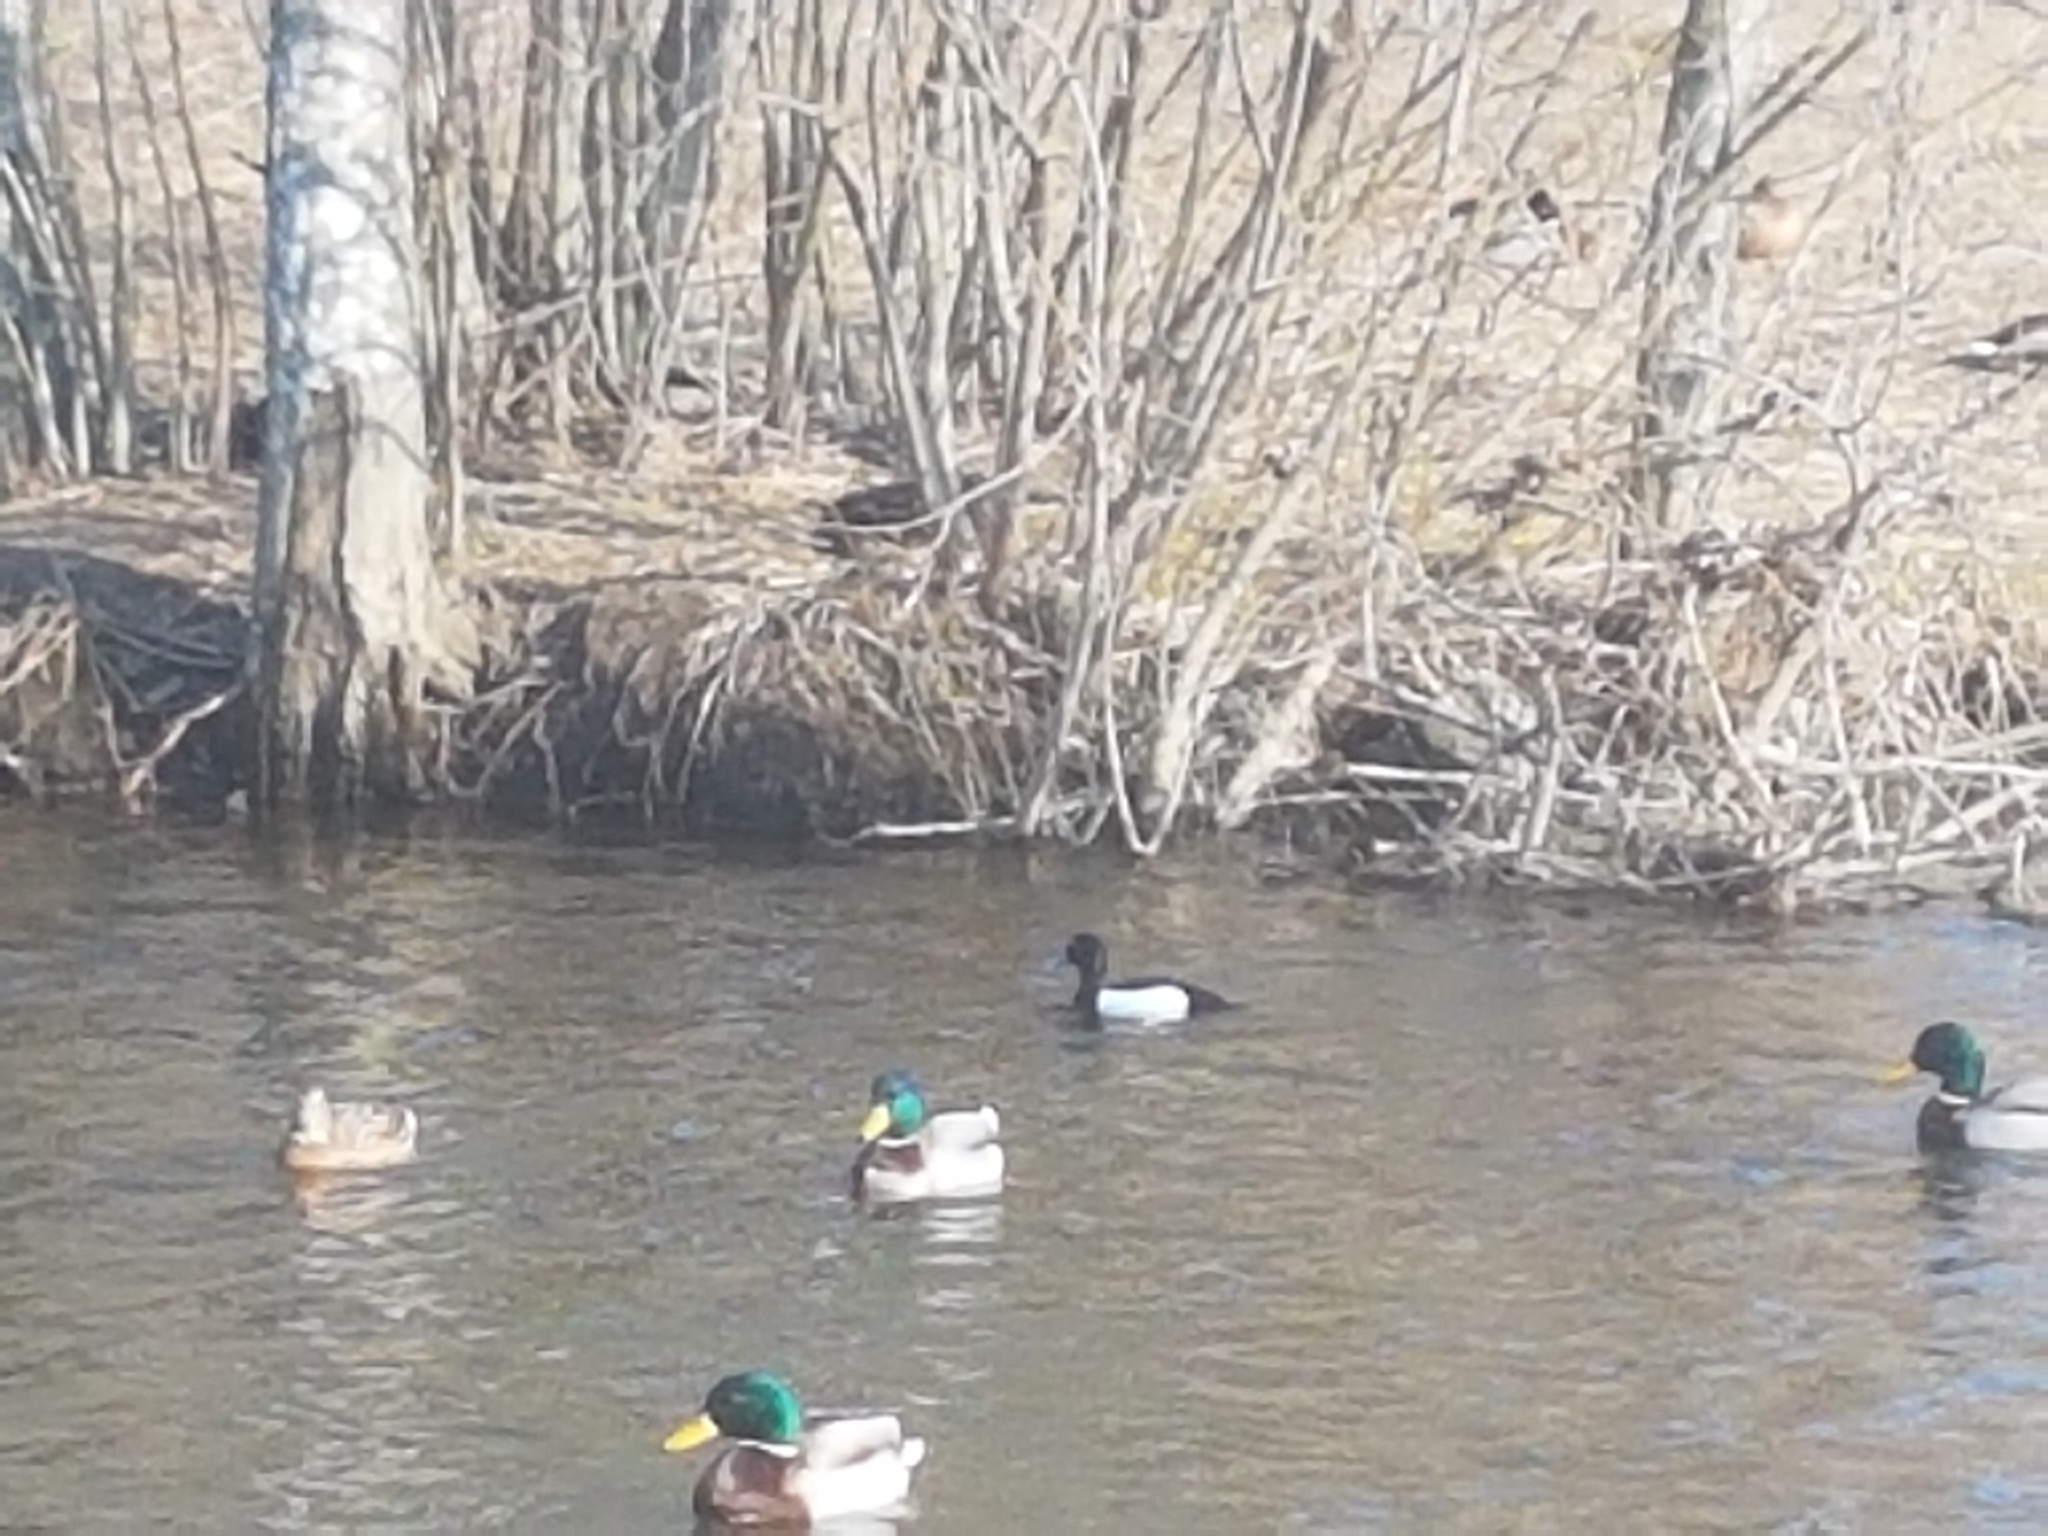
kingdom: Animalia
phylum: Chordata
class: Aves
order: Anseriformes
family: Anatidae
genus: Aythya
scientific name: Aythya fuligula
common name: Tufted duck
